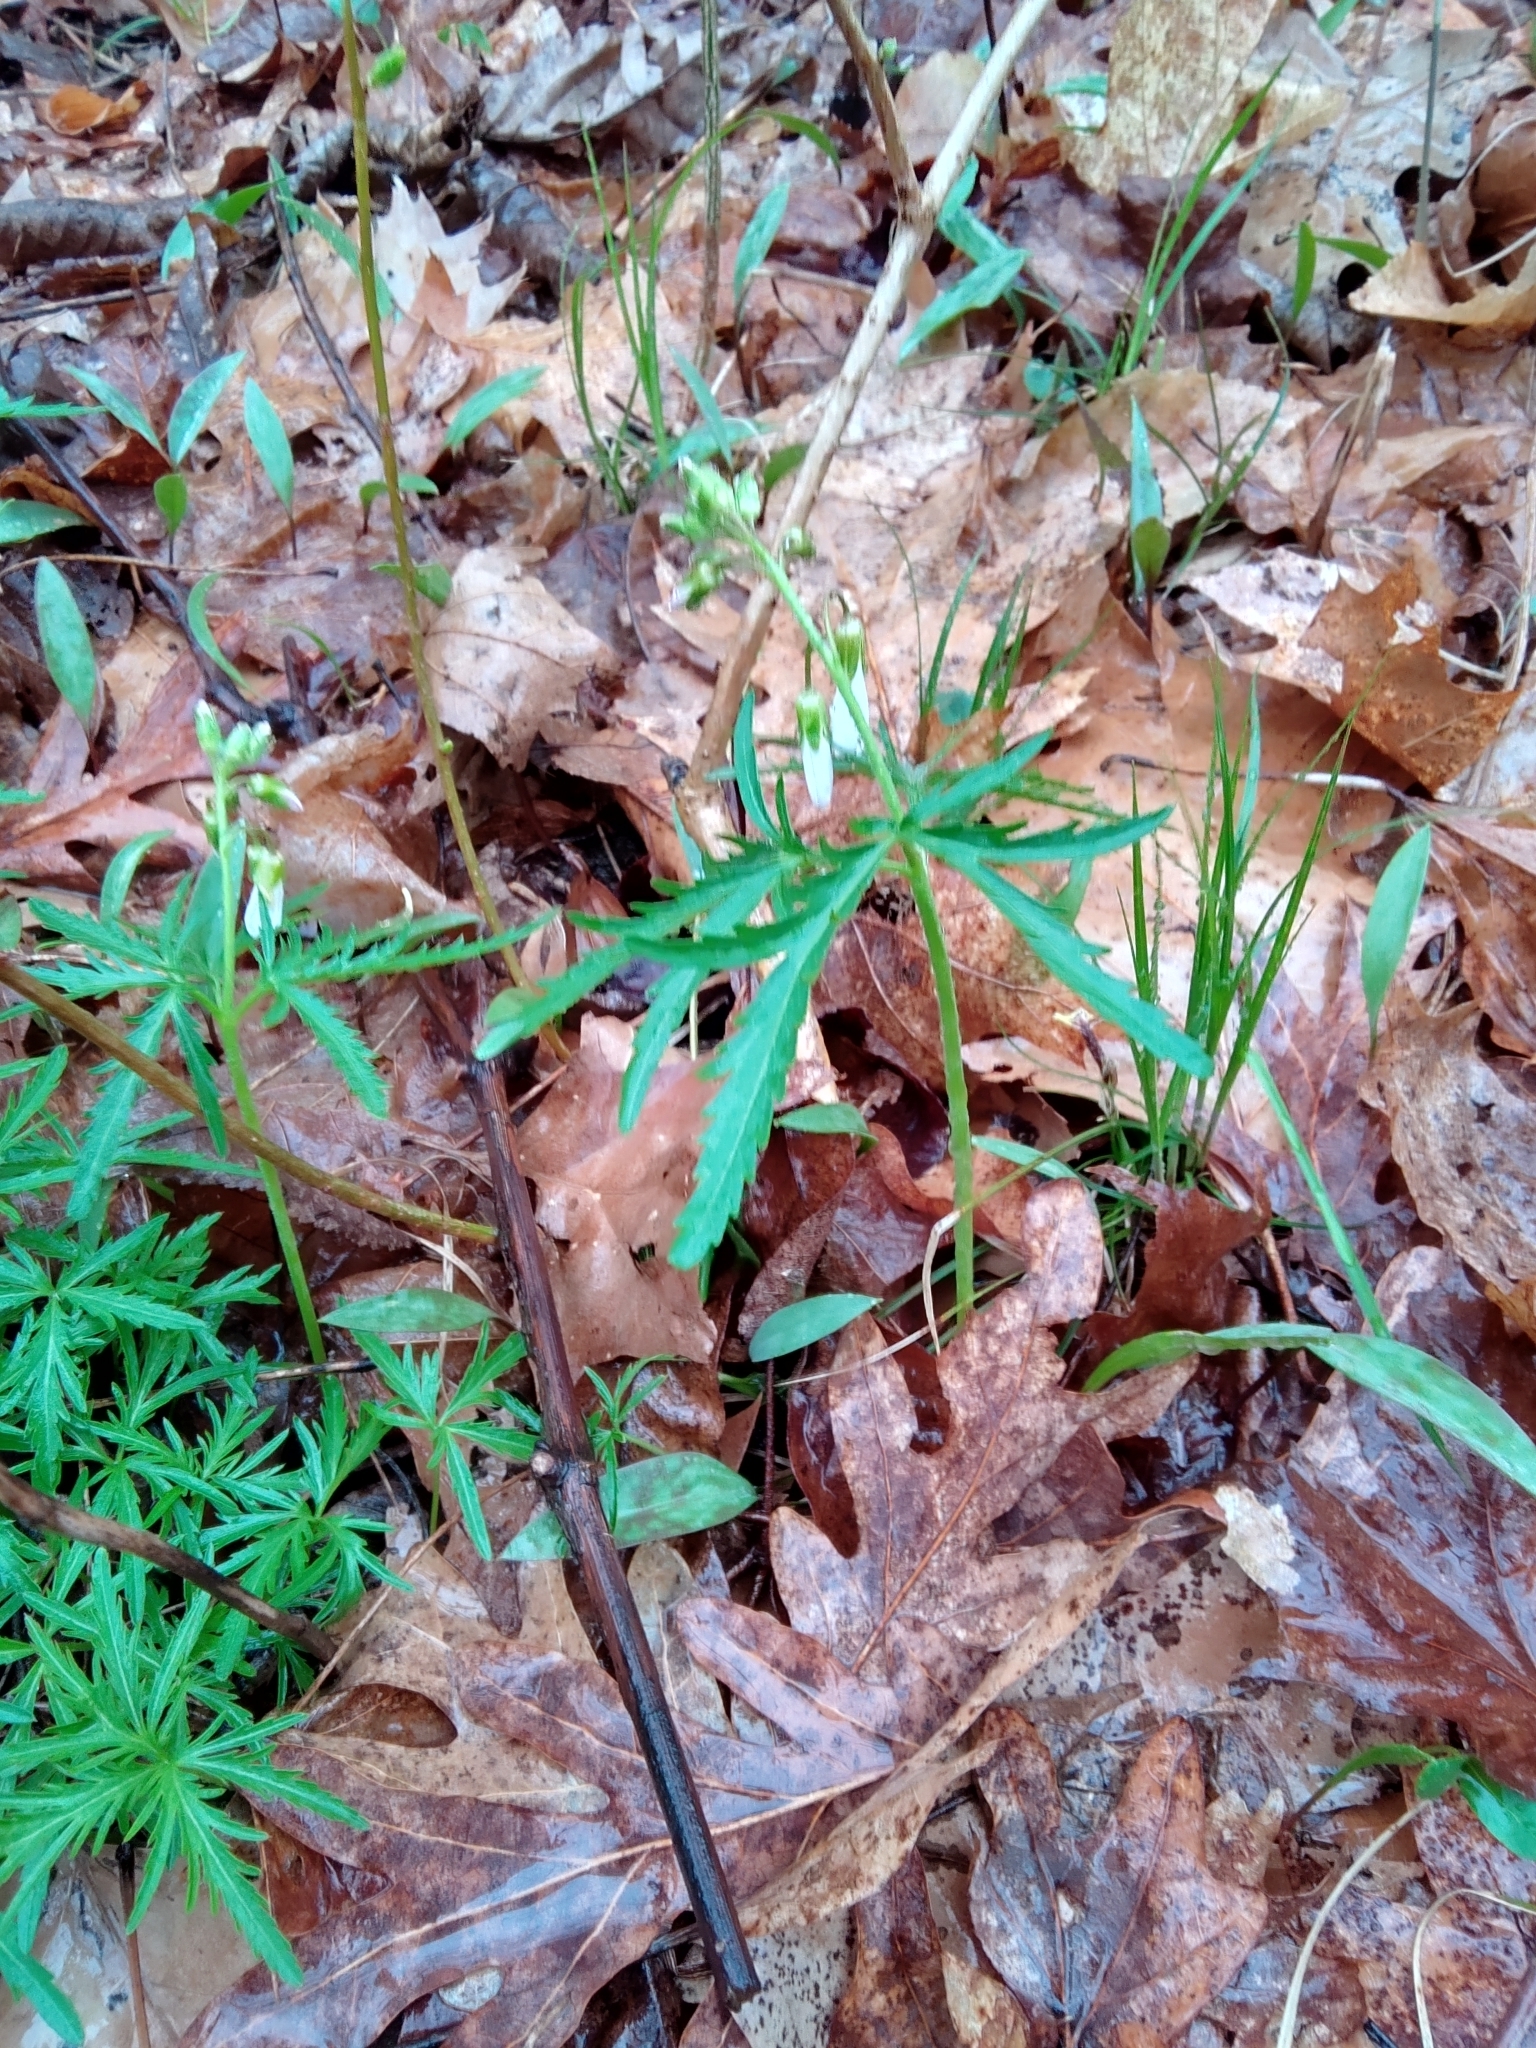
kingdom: Plantae
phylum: Tracheophyta
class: Magnoliopsida
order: Brassicales
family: Brassicaceae
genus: Cardamine
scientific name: Cardamine concatenata
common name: Cut-leaf toothcup
